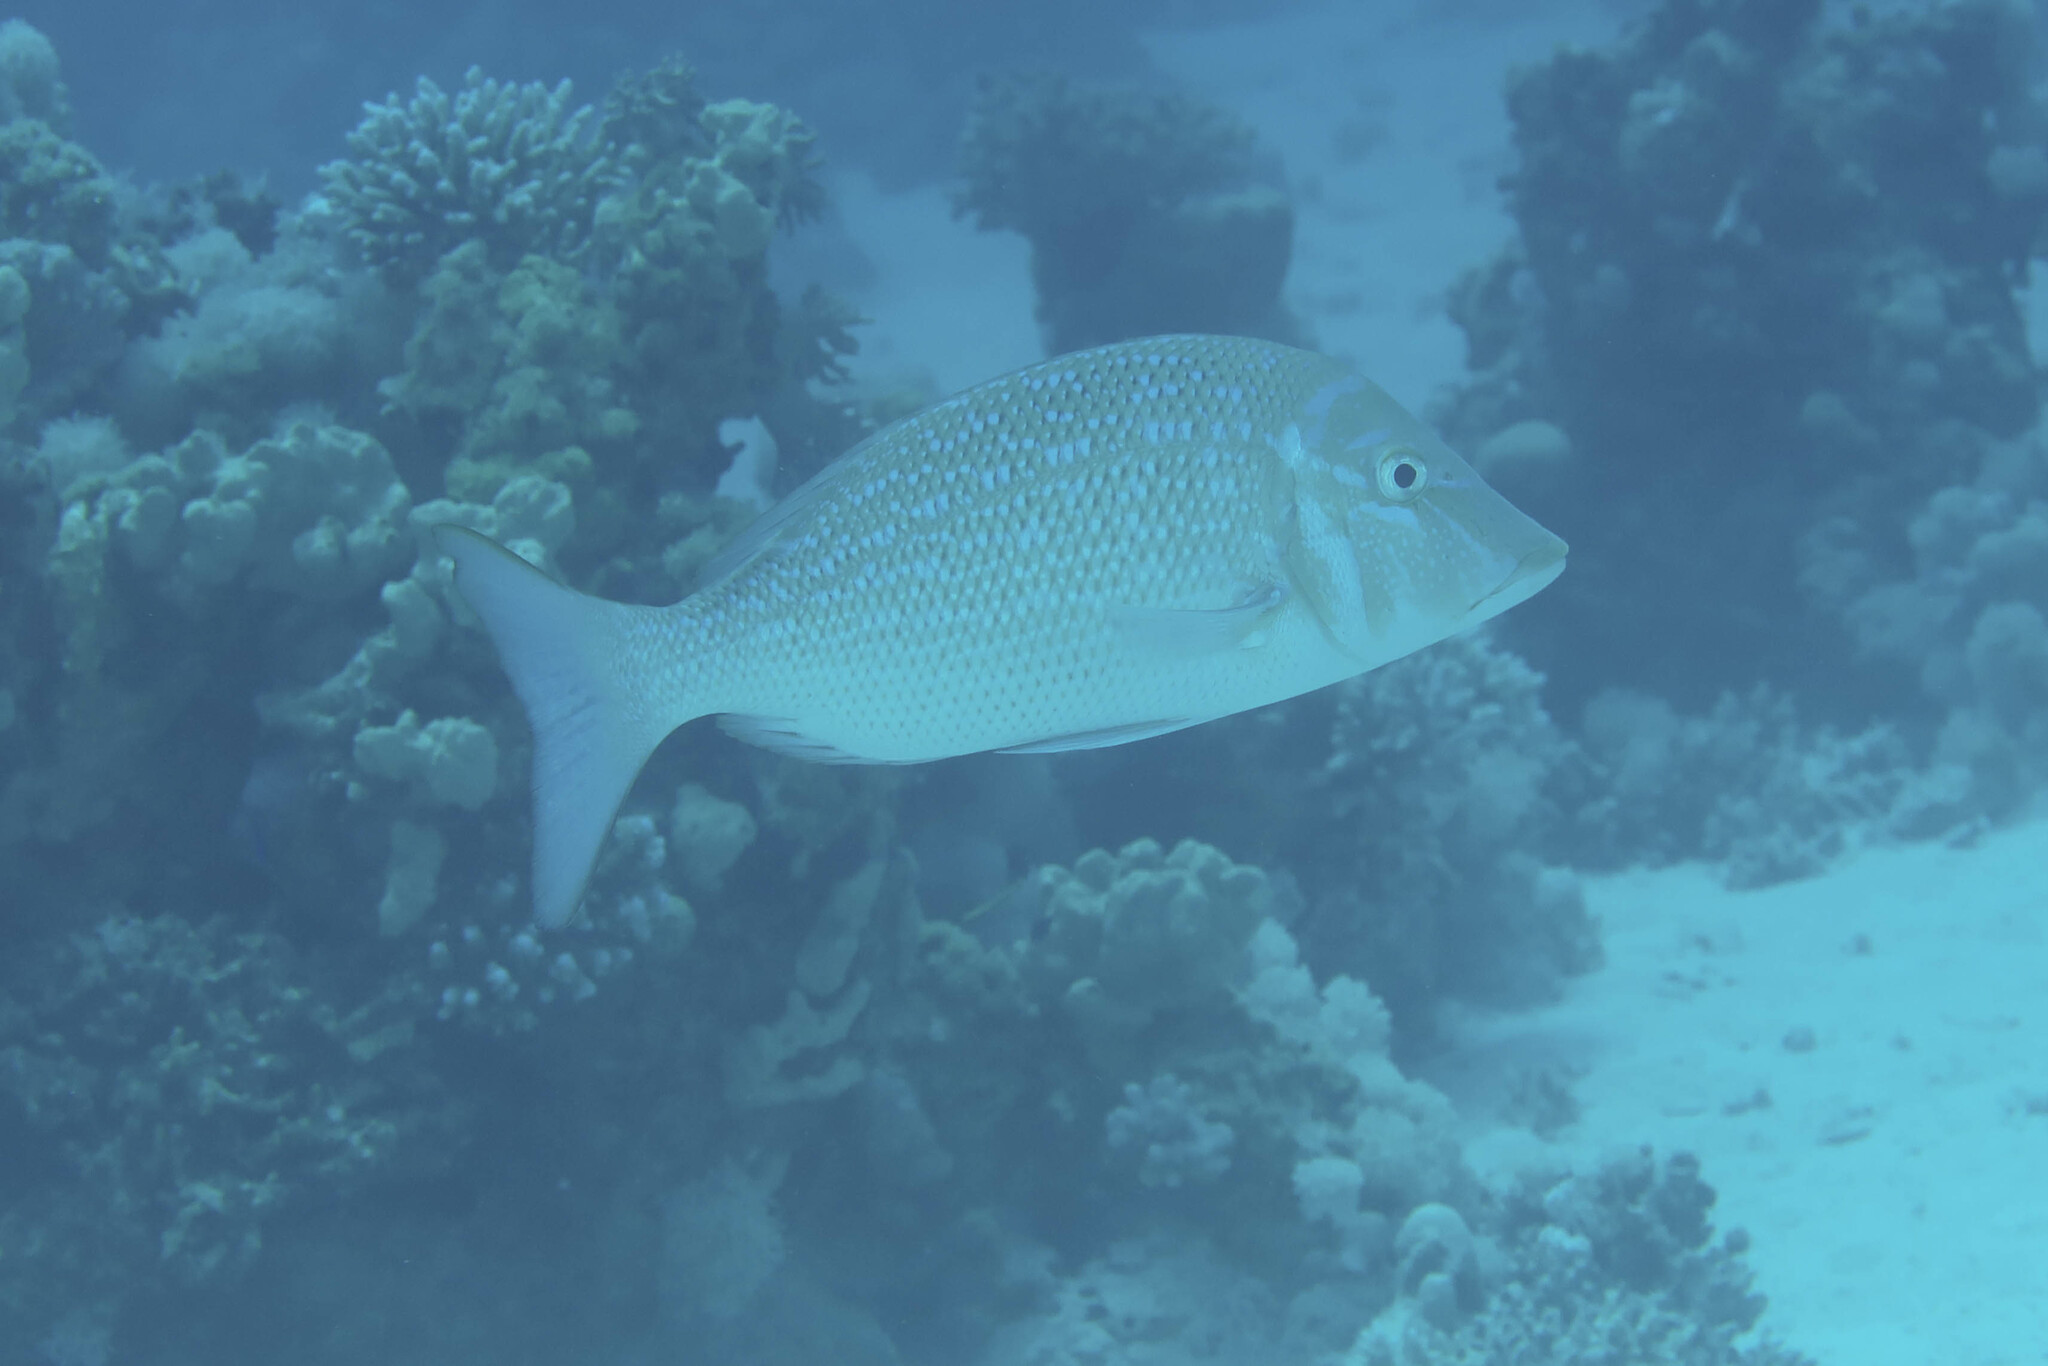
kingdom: Animalia
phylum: Chordata
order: Perciformes
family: Lethrinidae
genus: Lethrinus
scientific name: Lethrinus nebulosus
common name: Spangled emperor
